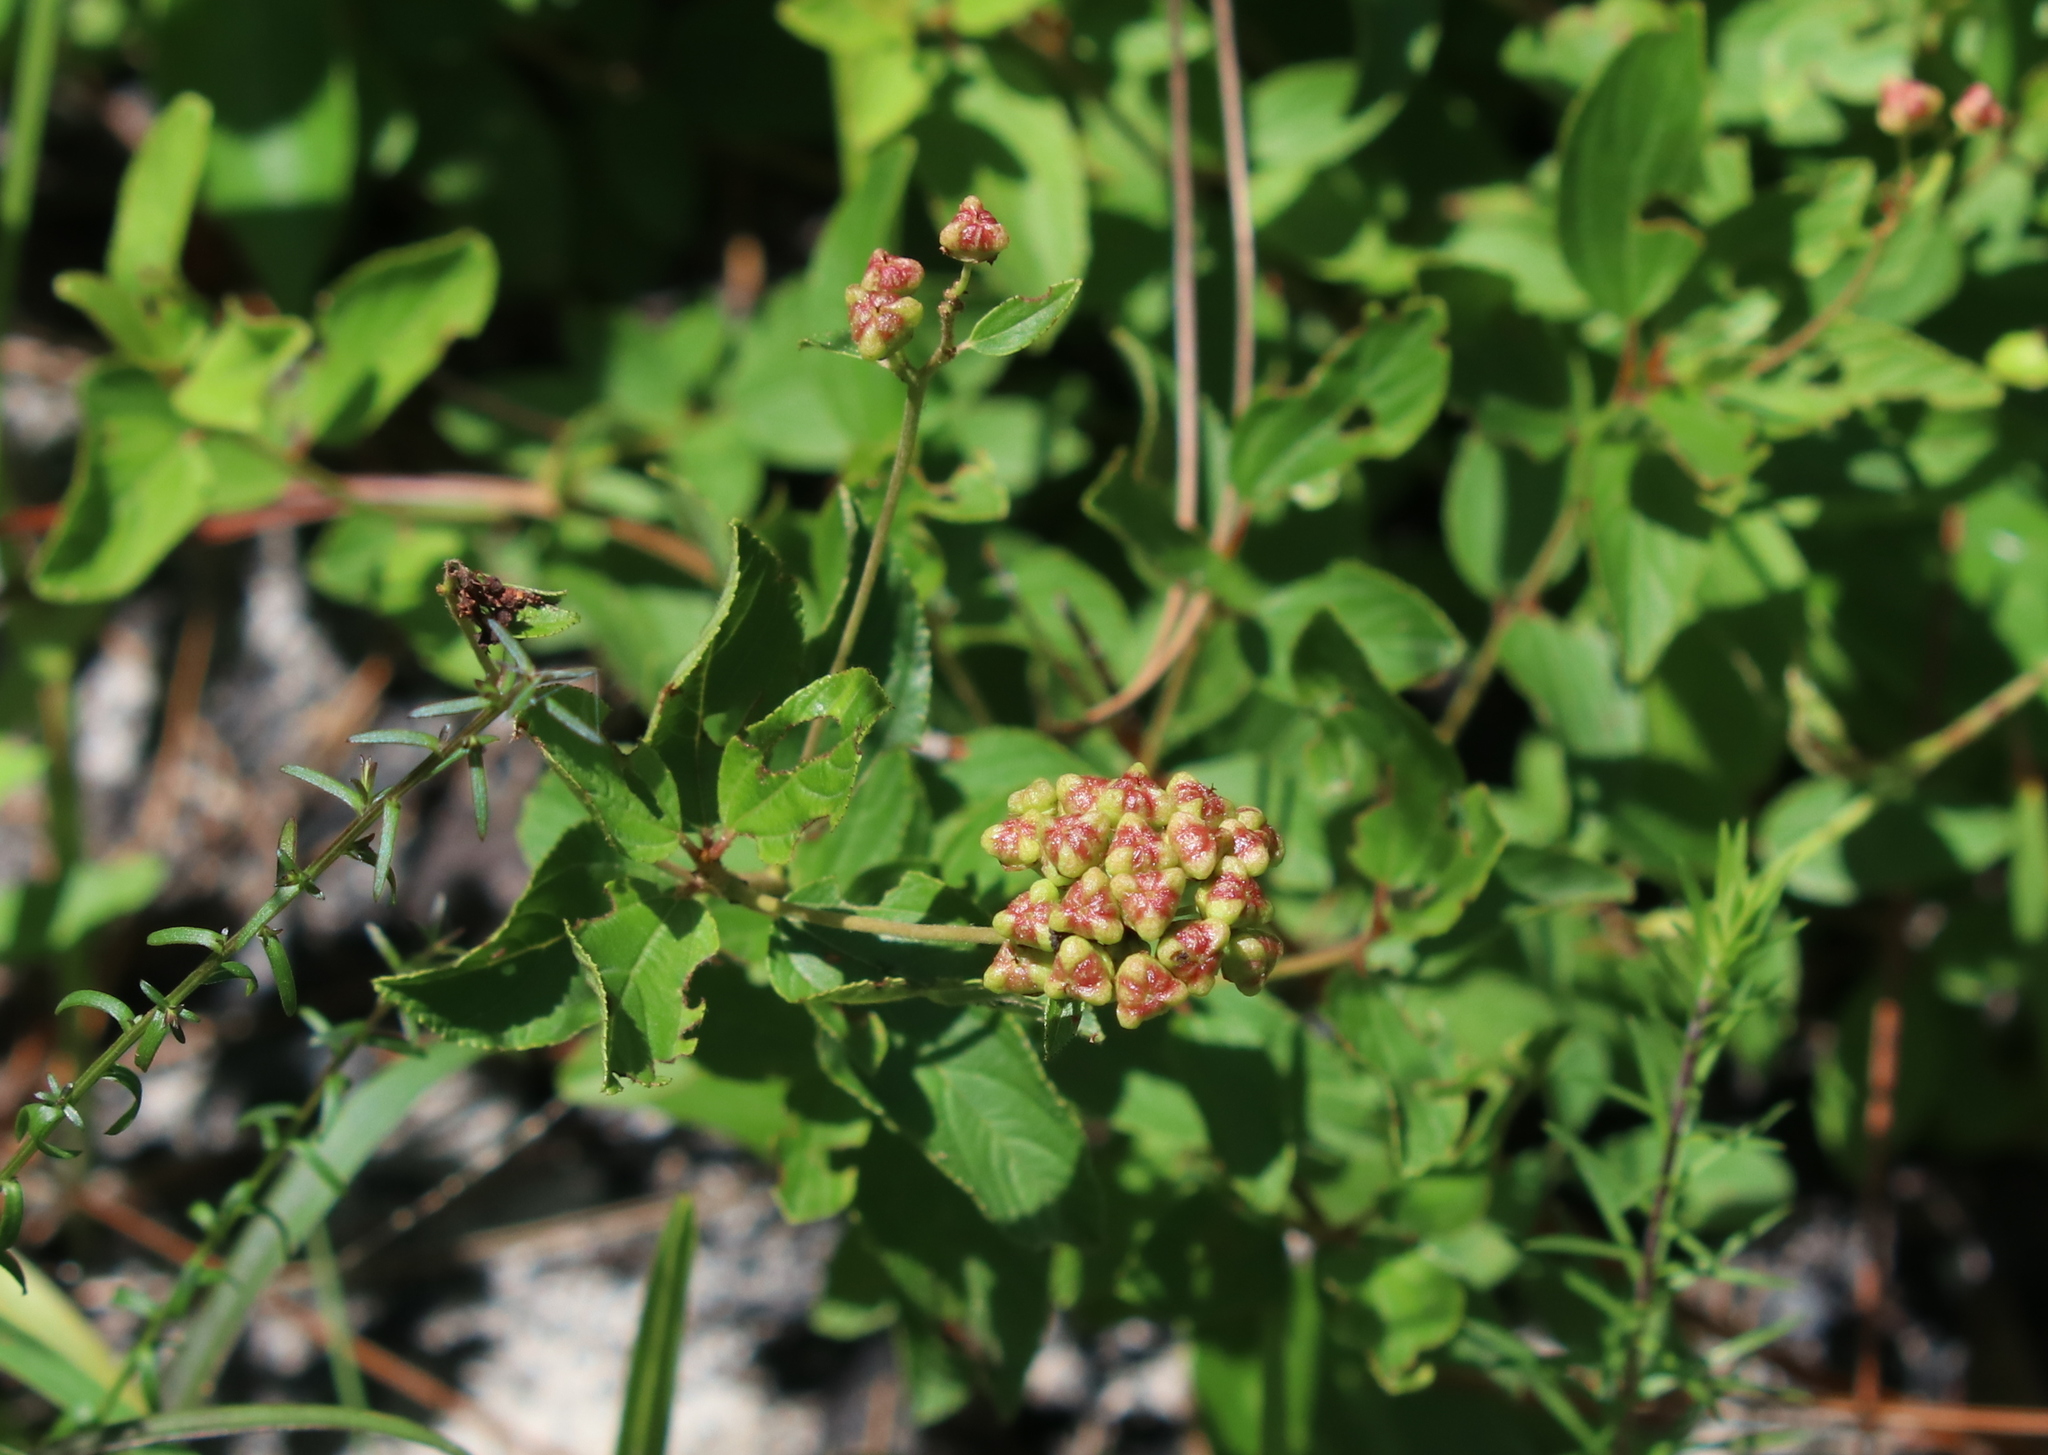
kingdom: Plantae
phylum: Tracheophyta
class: Magnoliopsida
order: Rosales
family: Rhamnaceae
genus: Ceanothus
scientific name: Ceanothus americanus
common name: Redroot
